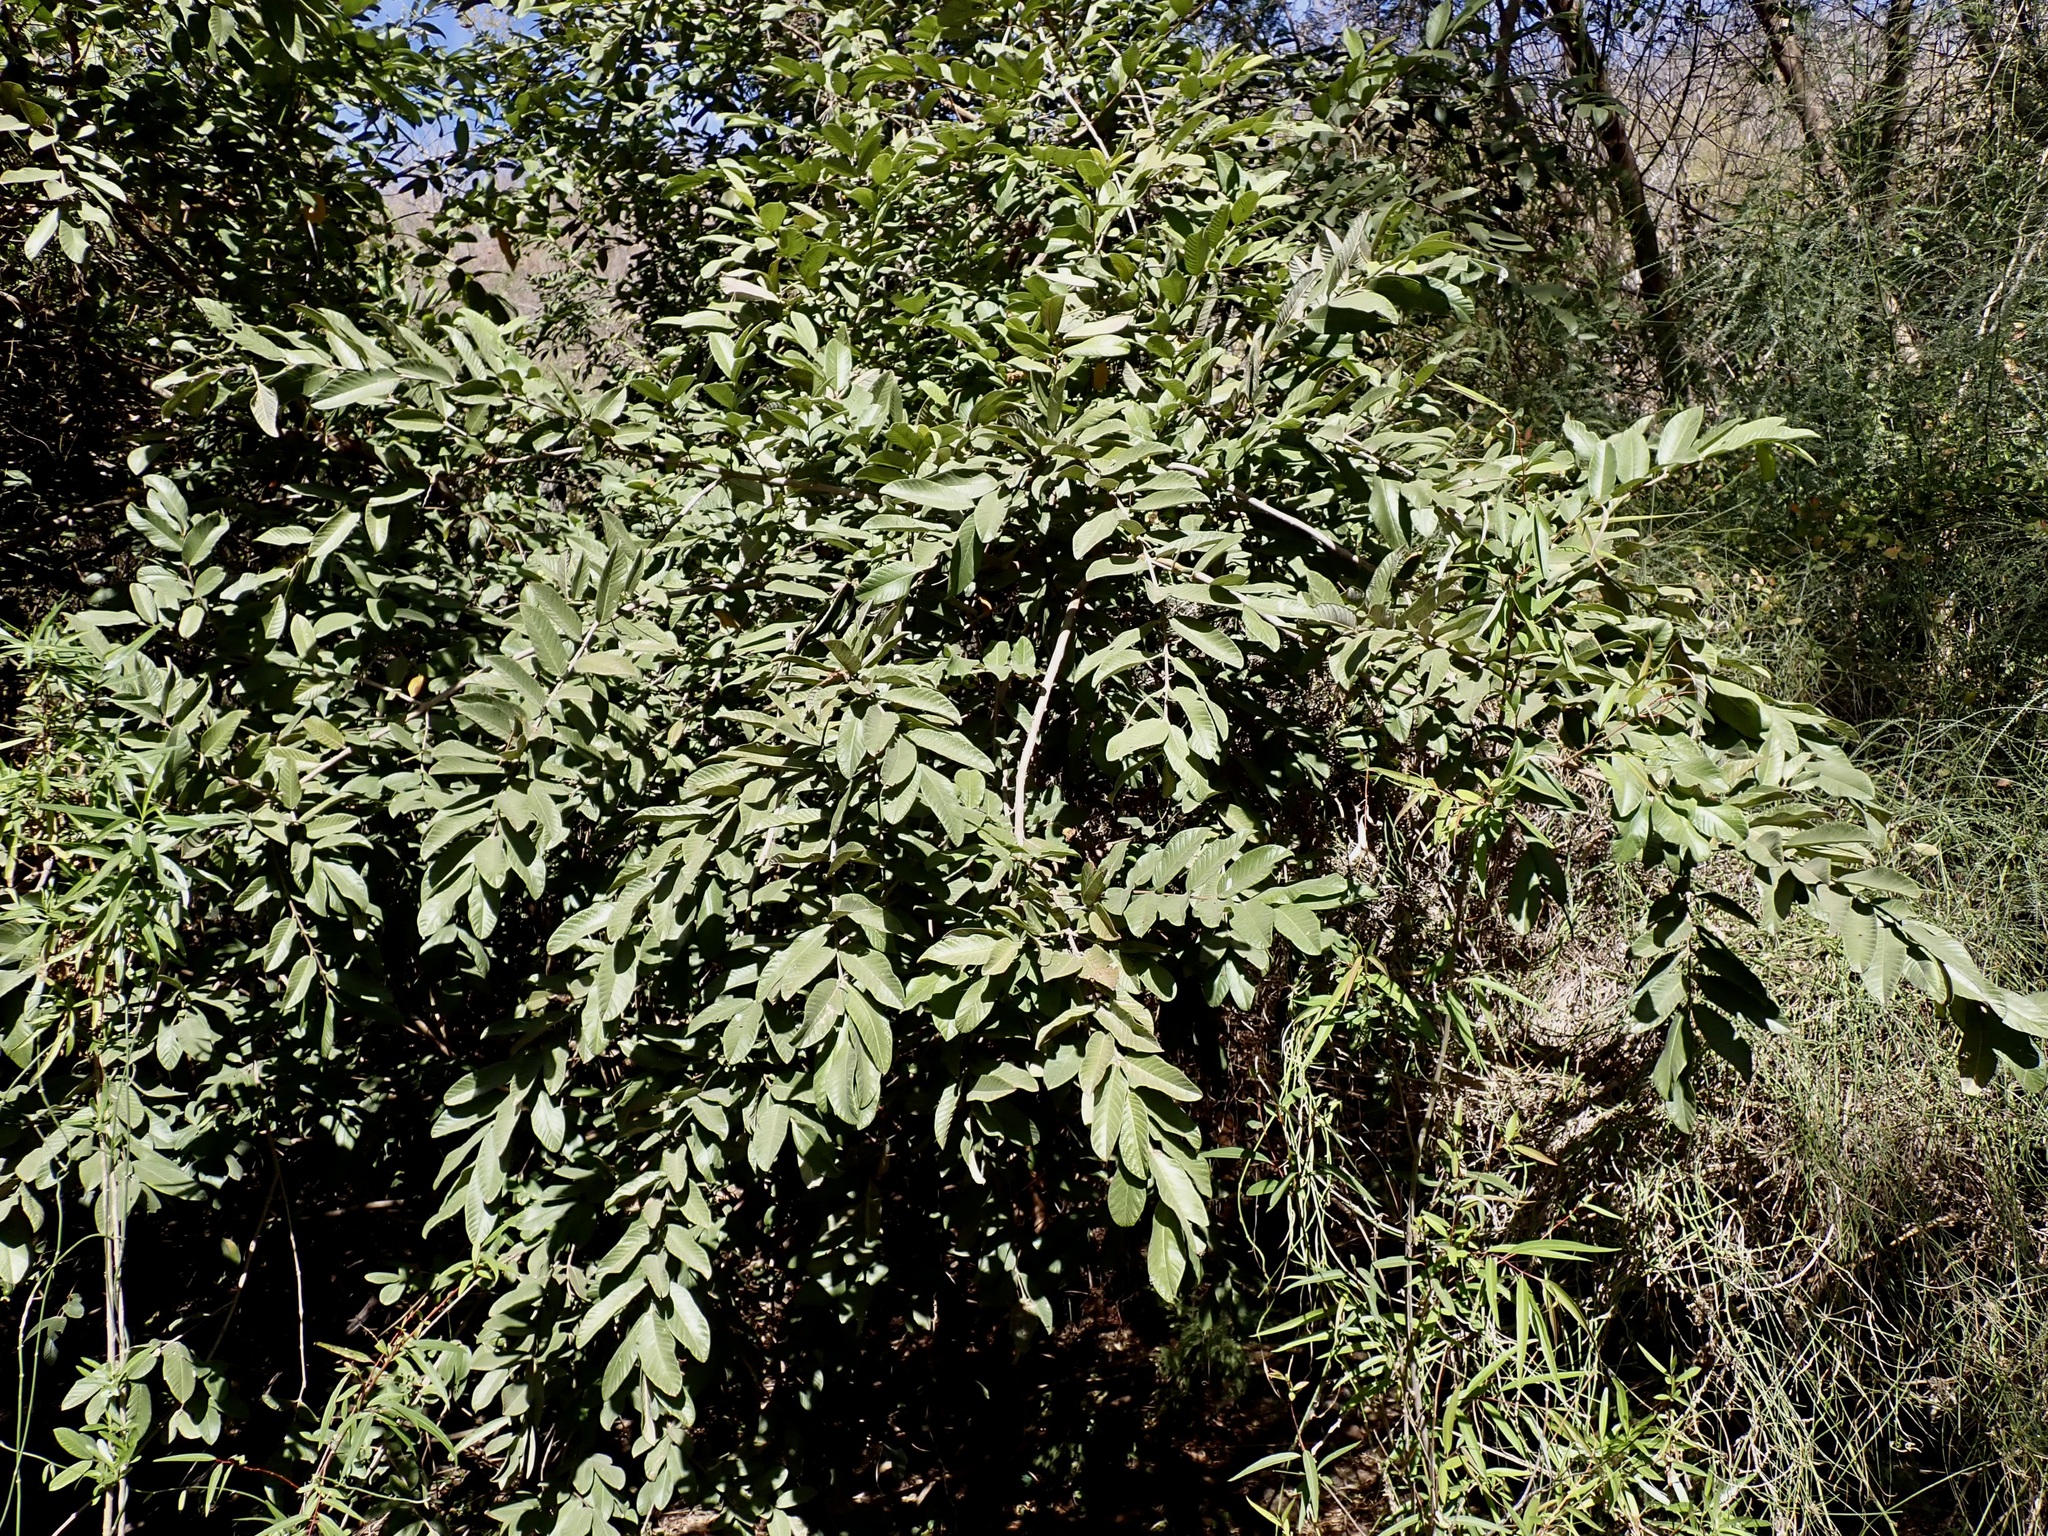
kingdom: Plantae
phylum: Tracheophyta
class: Magnoliopsida
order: Myrtales
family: Myrtaceae
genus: Psidium
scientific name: Psidium guajava
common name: Guava
